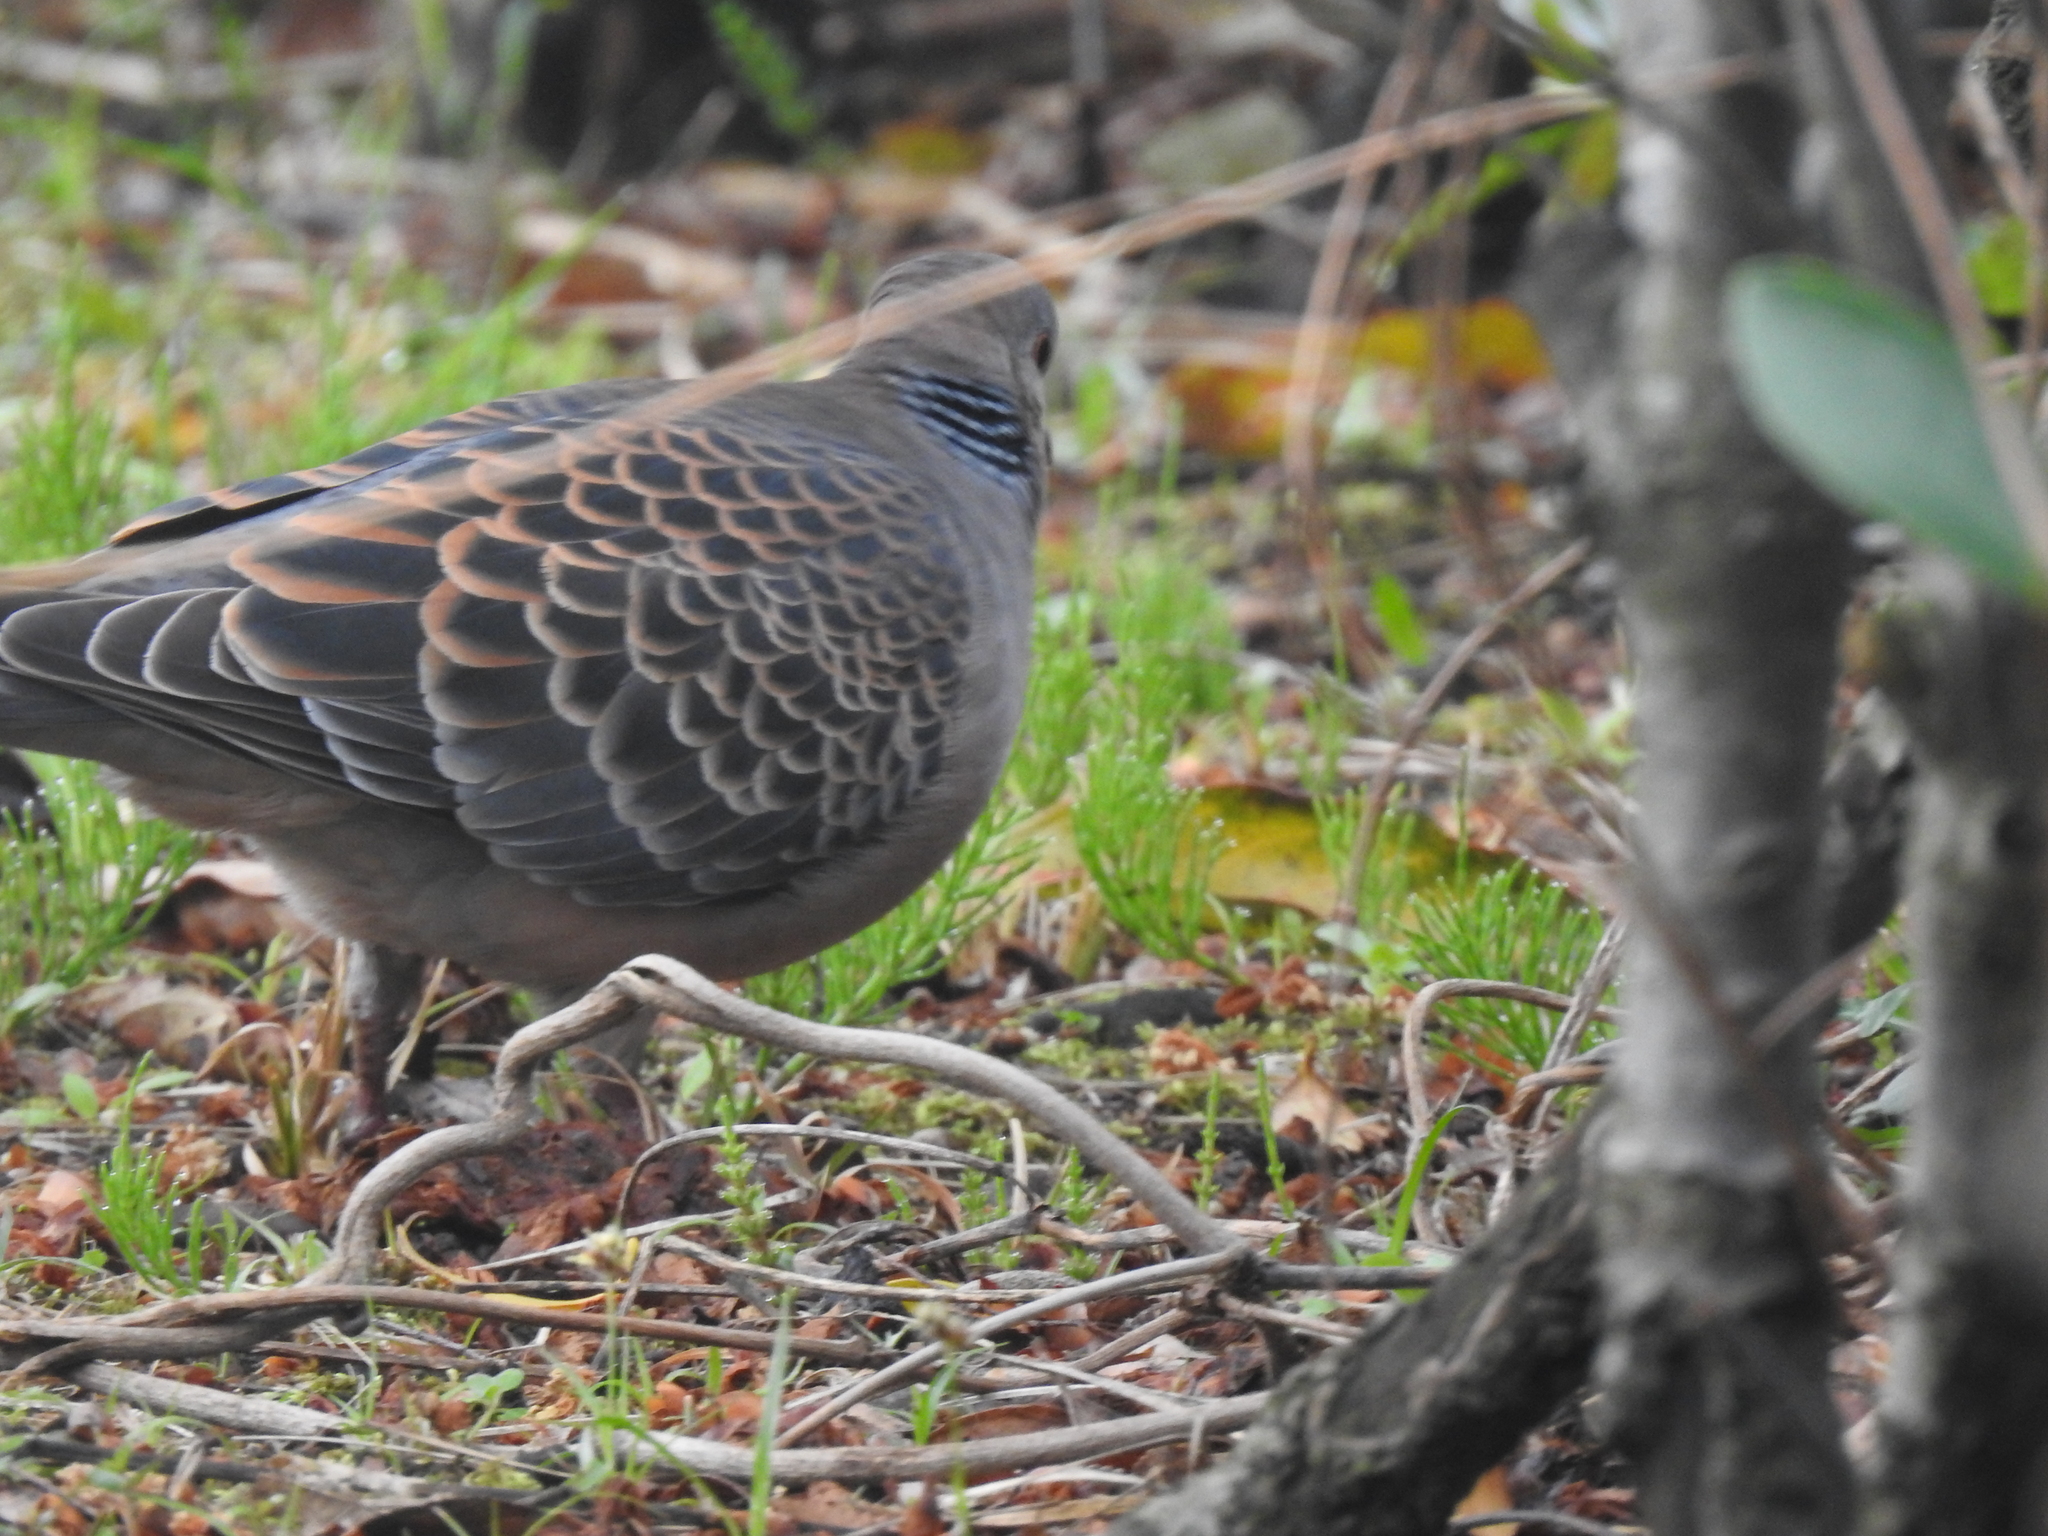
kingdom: Animalia
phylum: Chordata
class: Aves
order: Columbiformes
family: Columbidae
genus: Streptopelia
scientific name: Streptopelia orientalis
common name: Oriental turtle dove
